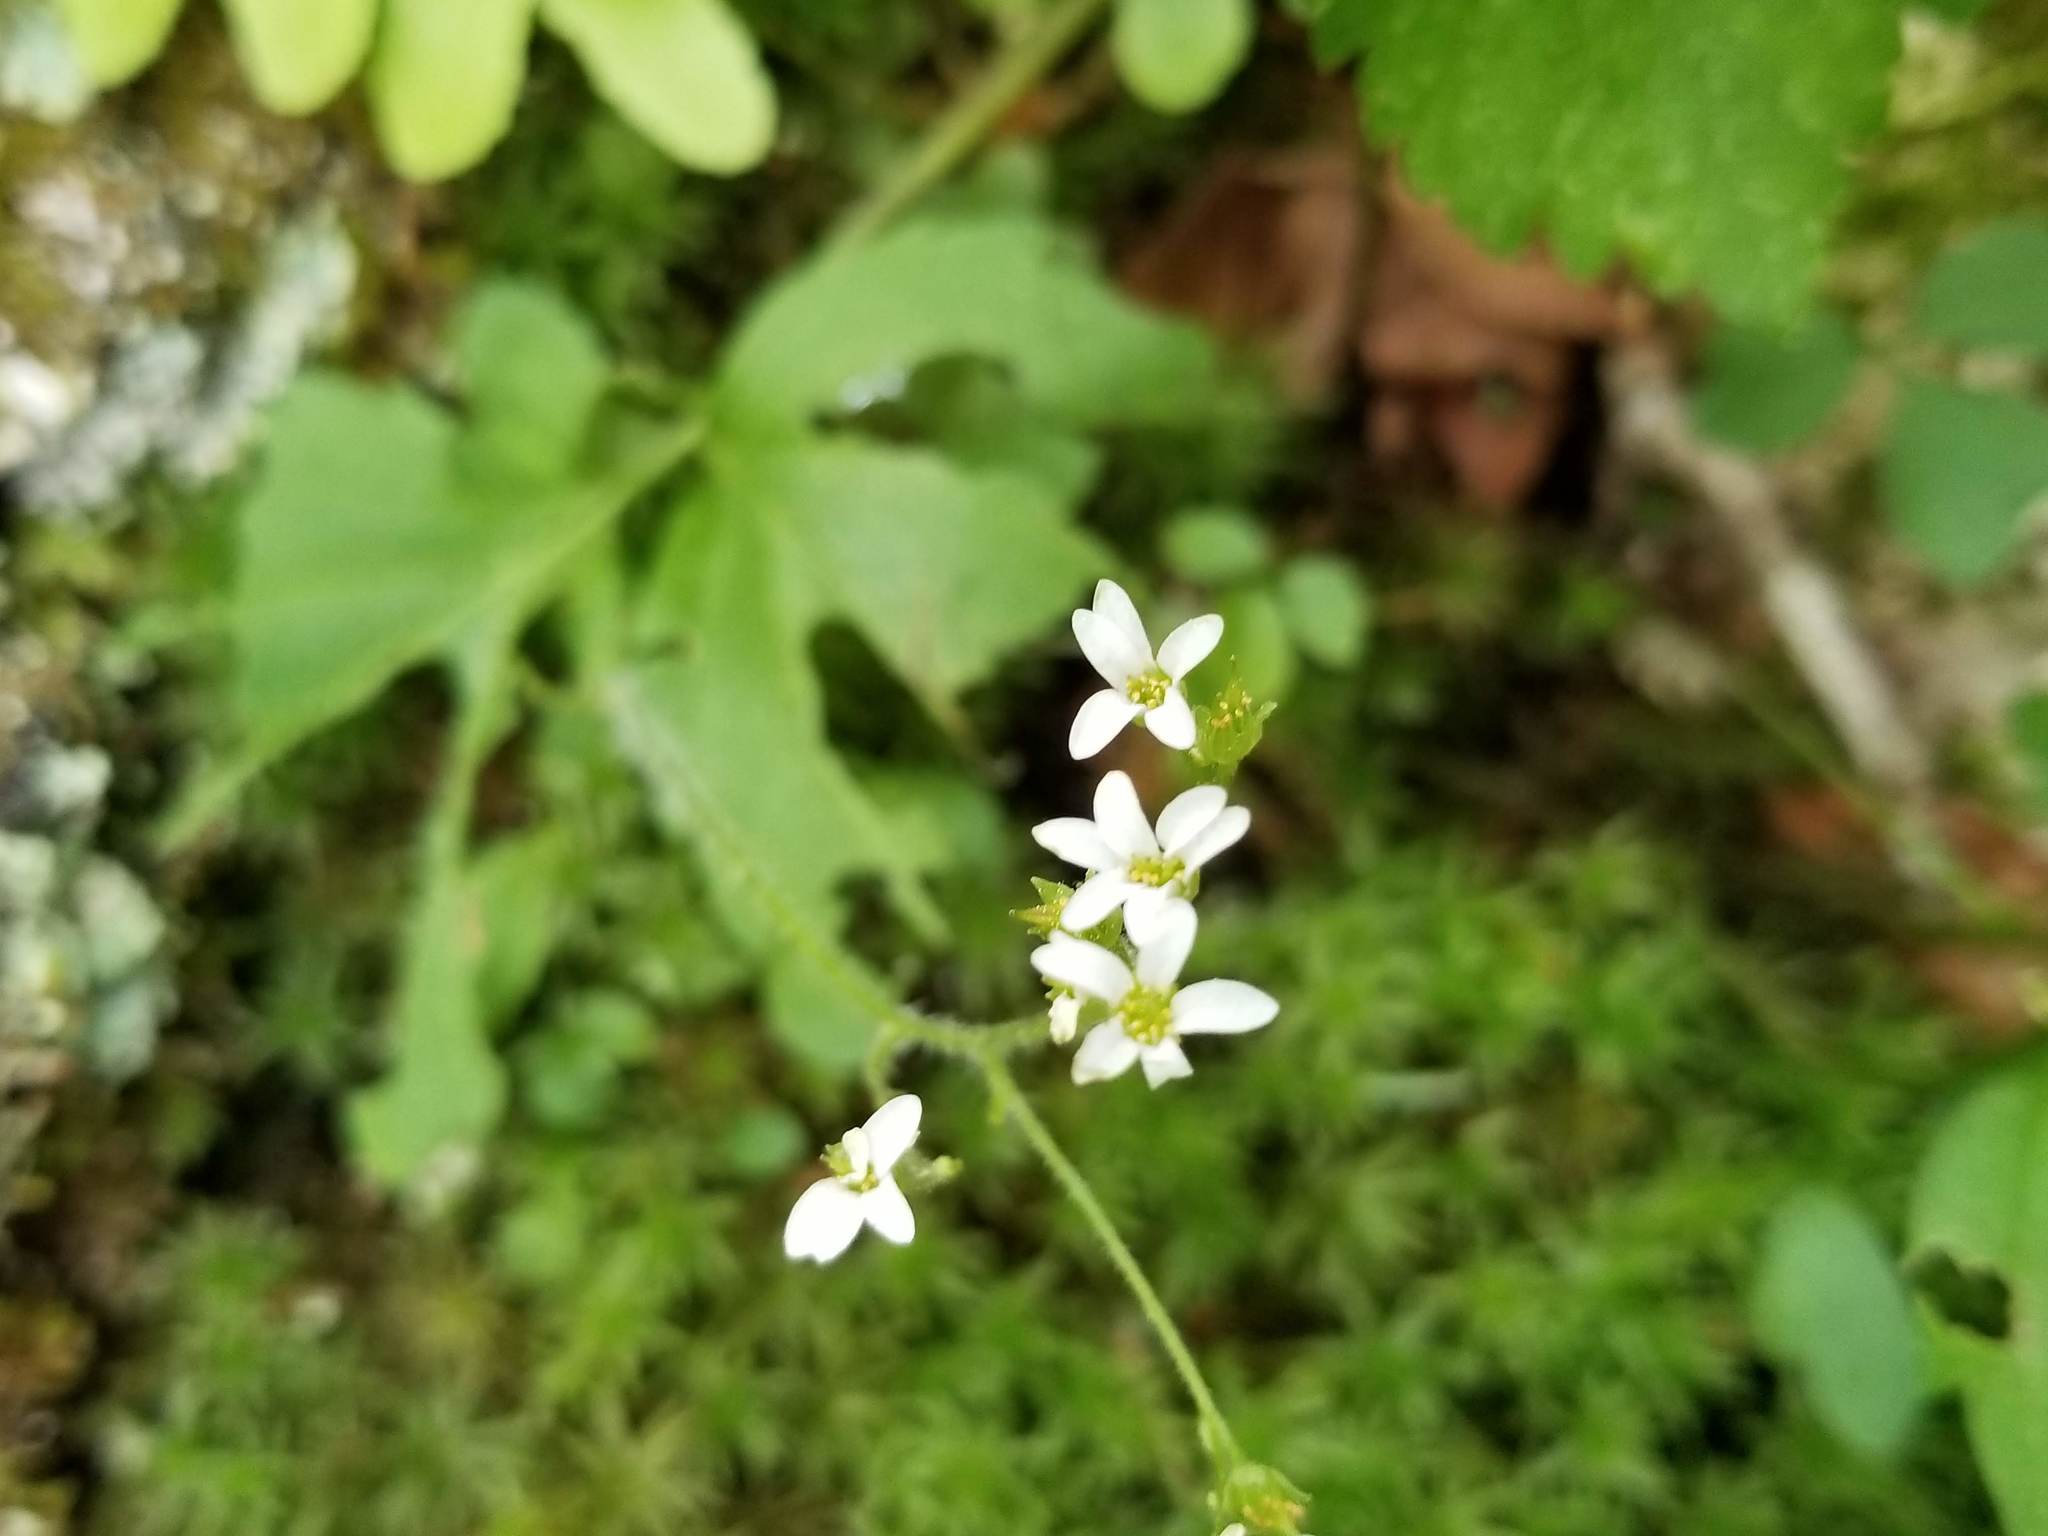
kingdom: Plantae
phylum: Tracheophyta
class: Magnoliopsida
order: Saxifragales
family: Saxifragaceae
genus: Micranthes
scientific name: Micranthes virginiensis
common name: Early saxifrage
